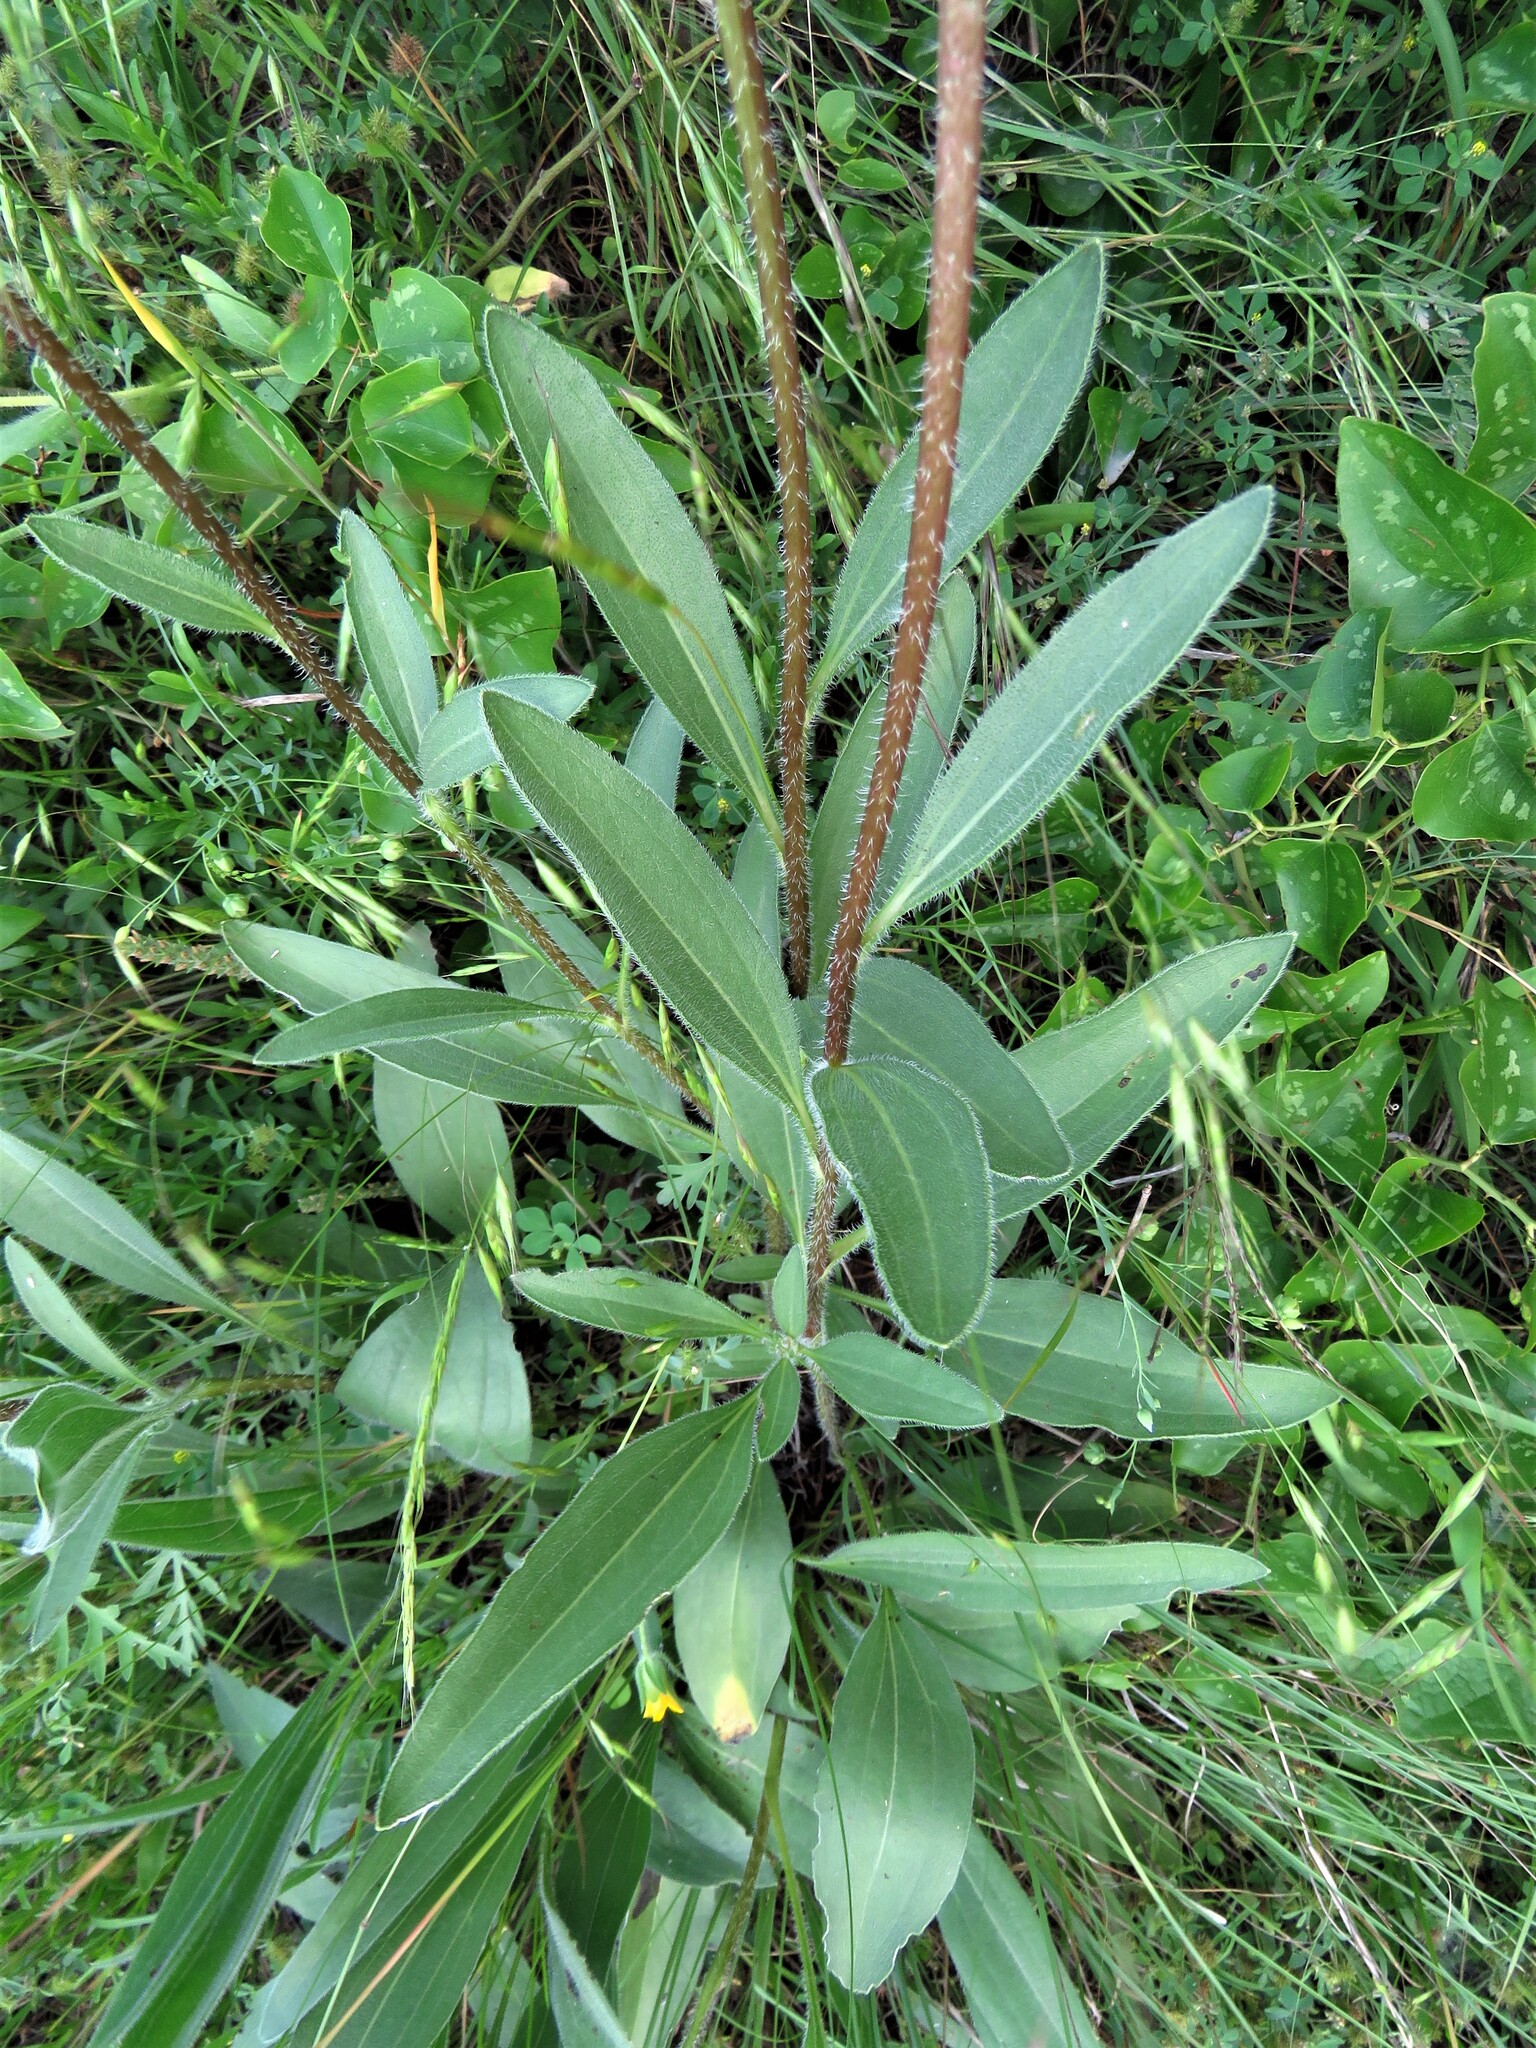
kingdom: Plantae
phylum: Tracheophyta
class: Magnoliopsida
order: Asterales
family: Asteraceae
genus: Echinacea
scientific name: Echinacea angustifolia
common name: Black-sampson echinacea
